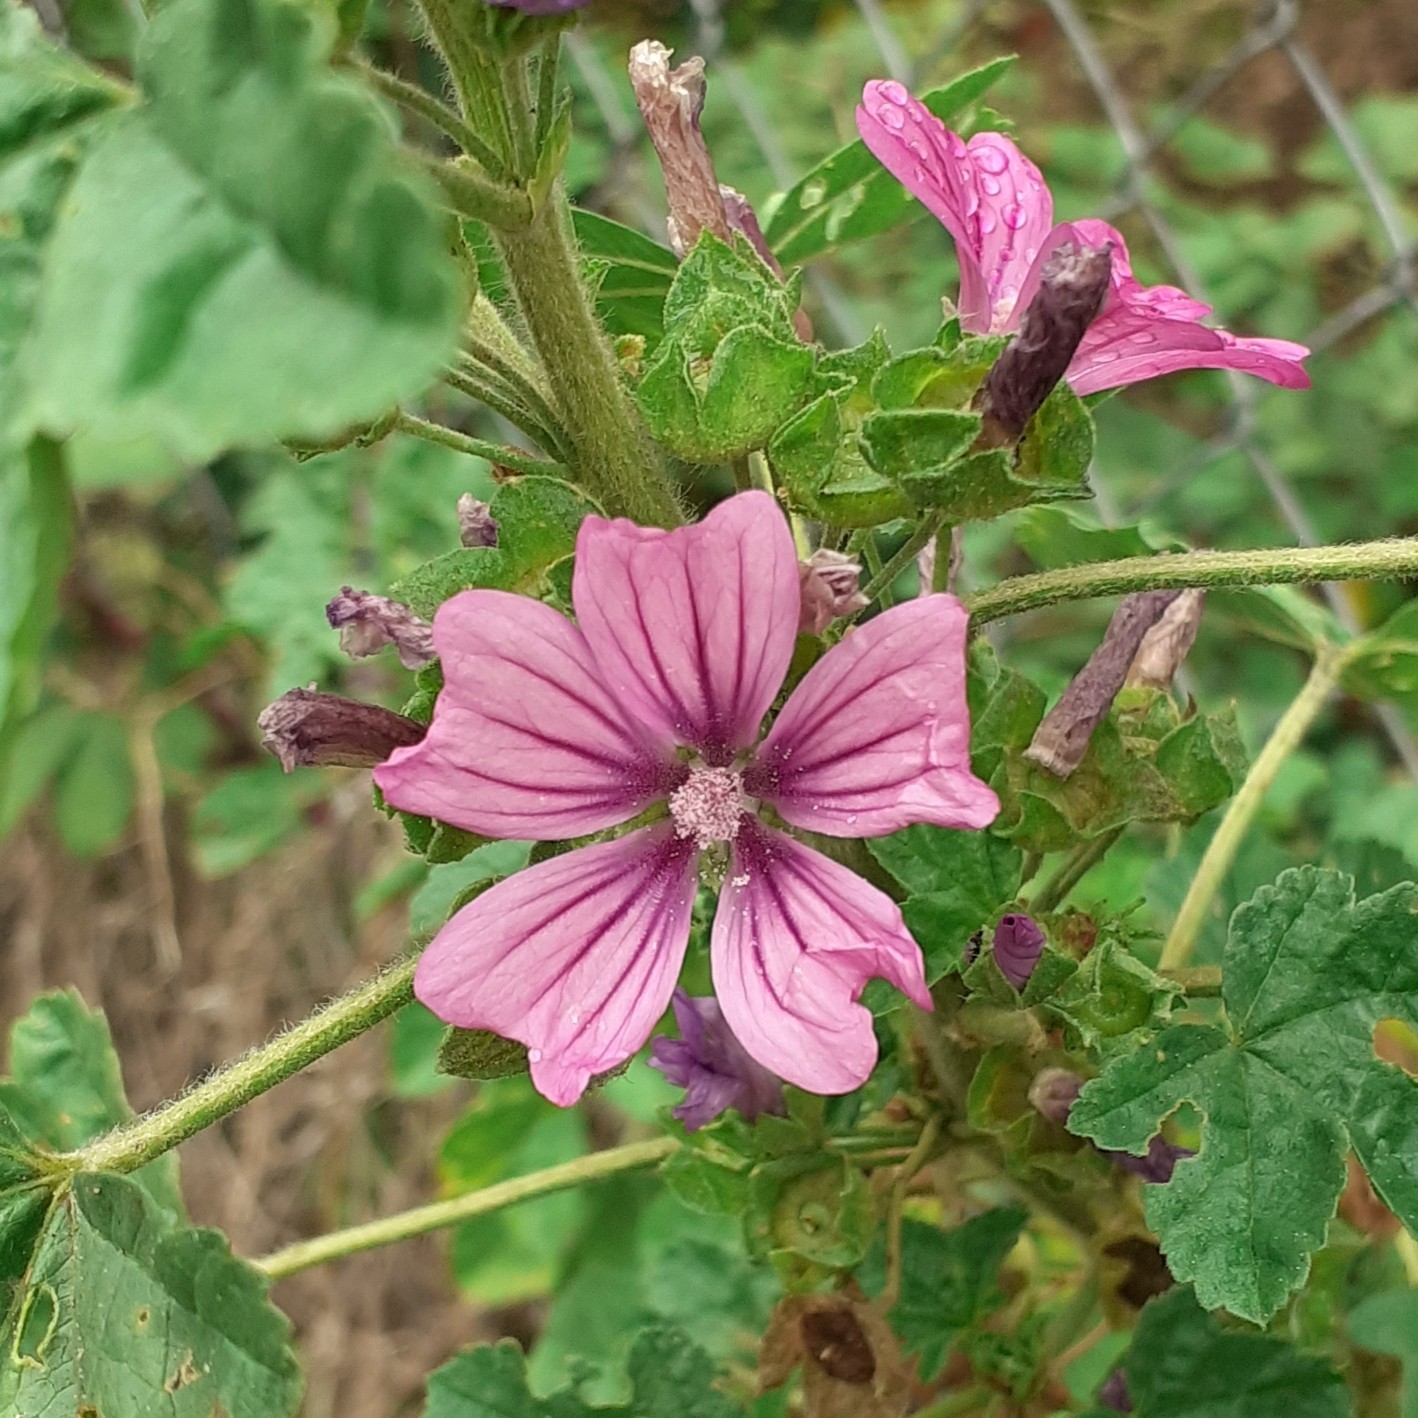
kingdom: Plantae
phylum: Tracheophyta
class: Magnoliopsida
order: Malvales
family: Malvaceae
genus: Malva
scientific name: Malva sylvestris
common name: Common mallow
